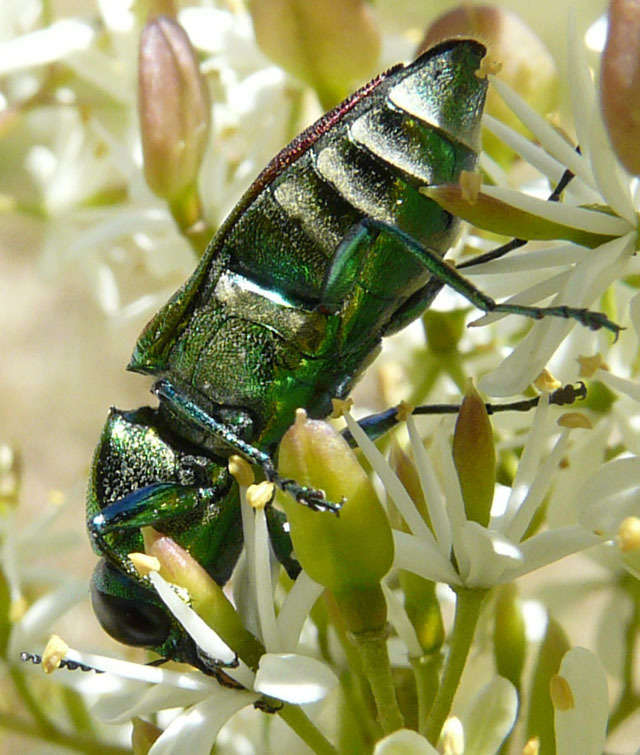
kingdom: Animalia
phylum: Arthropoda
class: Insecta
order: Coleoptera
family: Buprestidae
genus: Selagis
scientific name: Selagis caloptera
